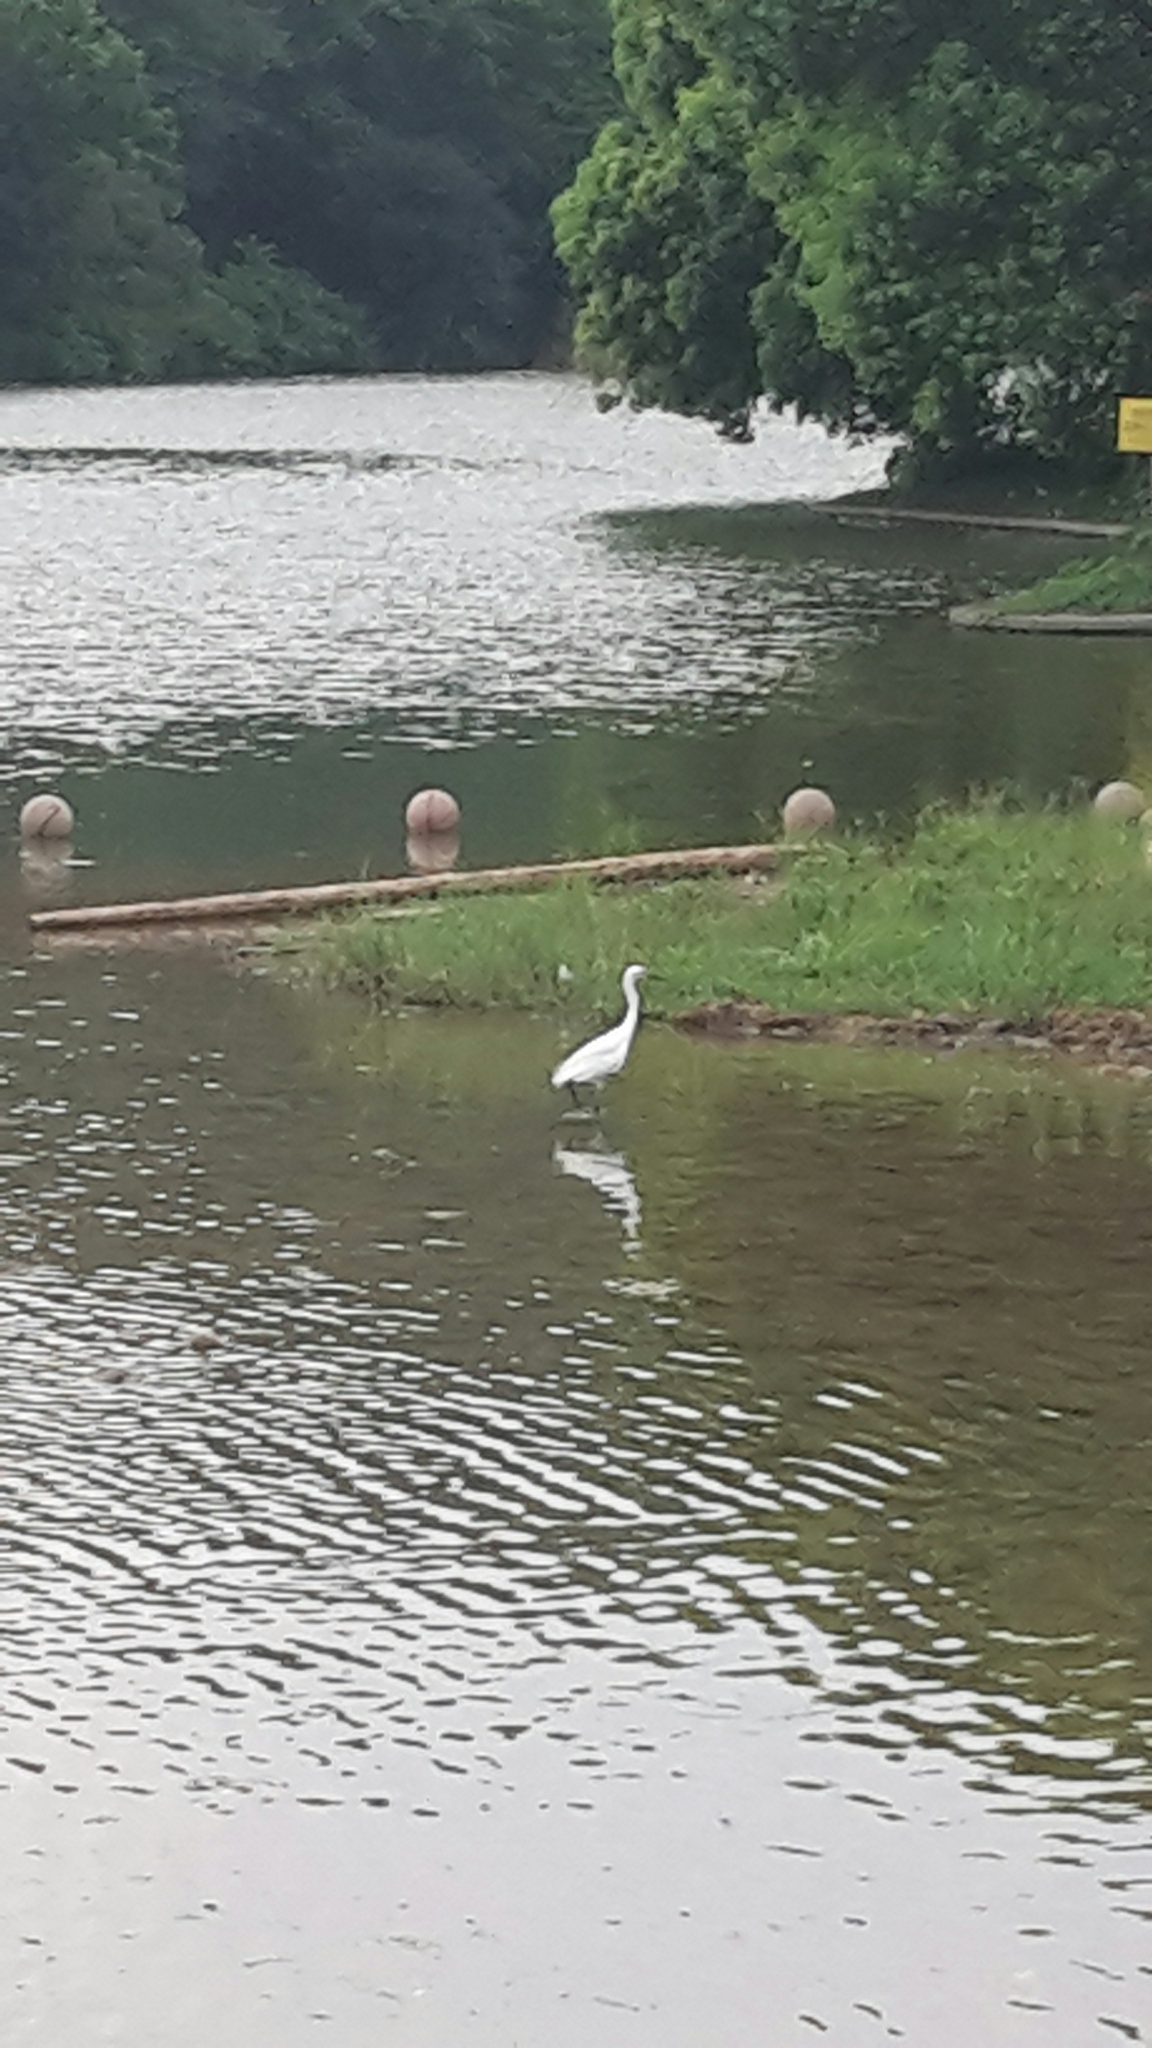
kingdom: Animalia
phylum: Chordata
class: Aves
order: Pelecaniformes
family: Ardeidae
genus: Egretta
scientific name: Egretta garzetta
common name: Little egret
